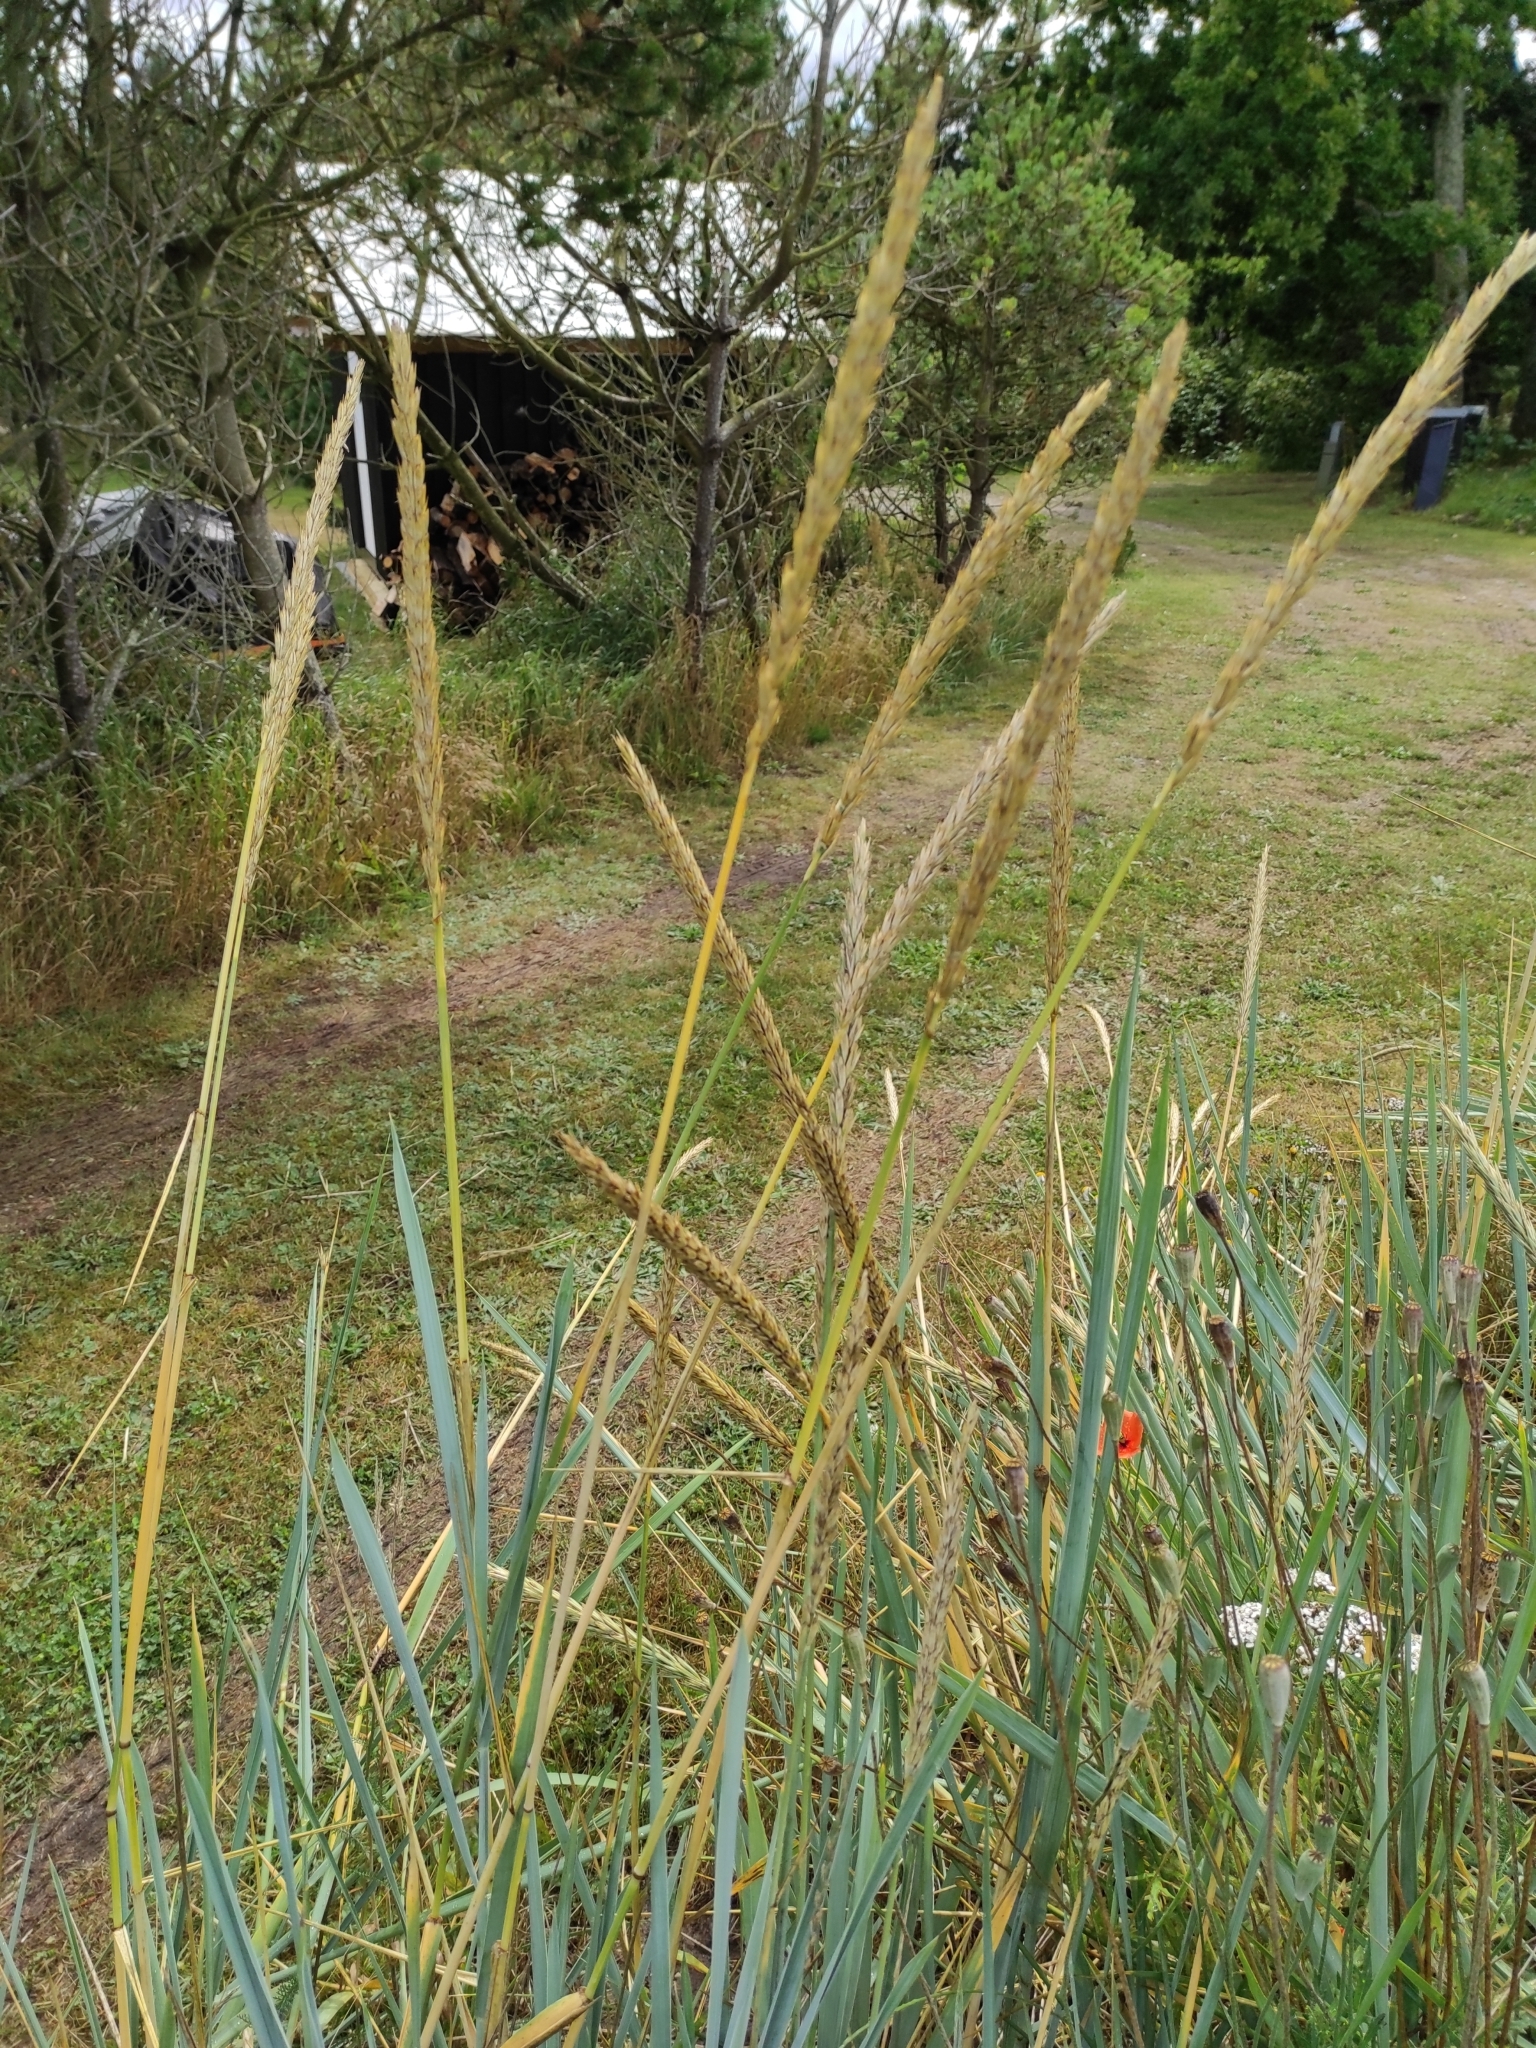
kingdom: Plantae
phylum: Tracheophyta
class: Liliopsida
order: Poales
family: Poaceae
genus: Leymus
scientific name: Leymus arenarius
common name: Lyme-grass
